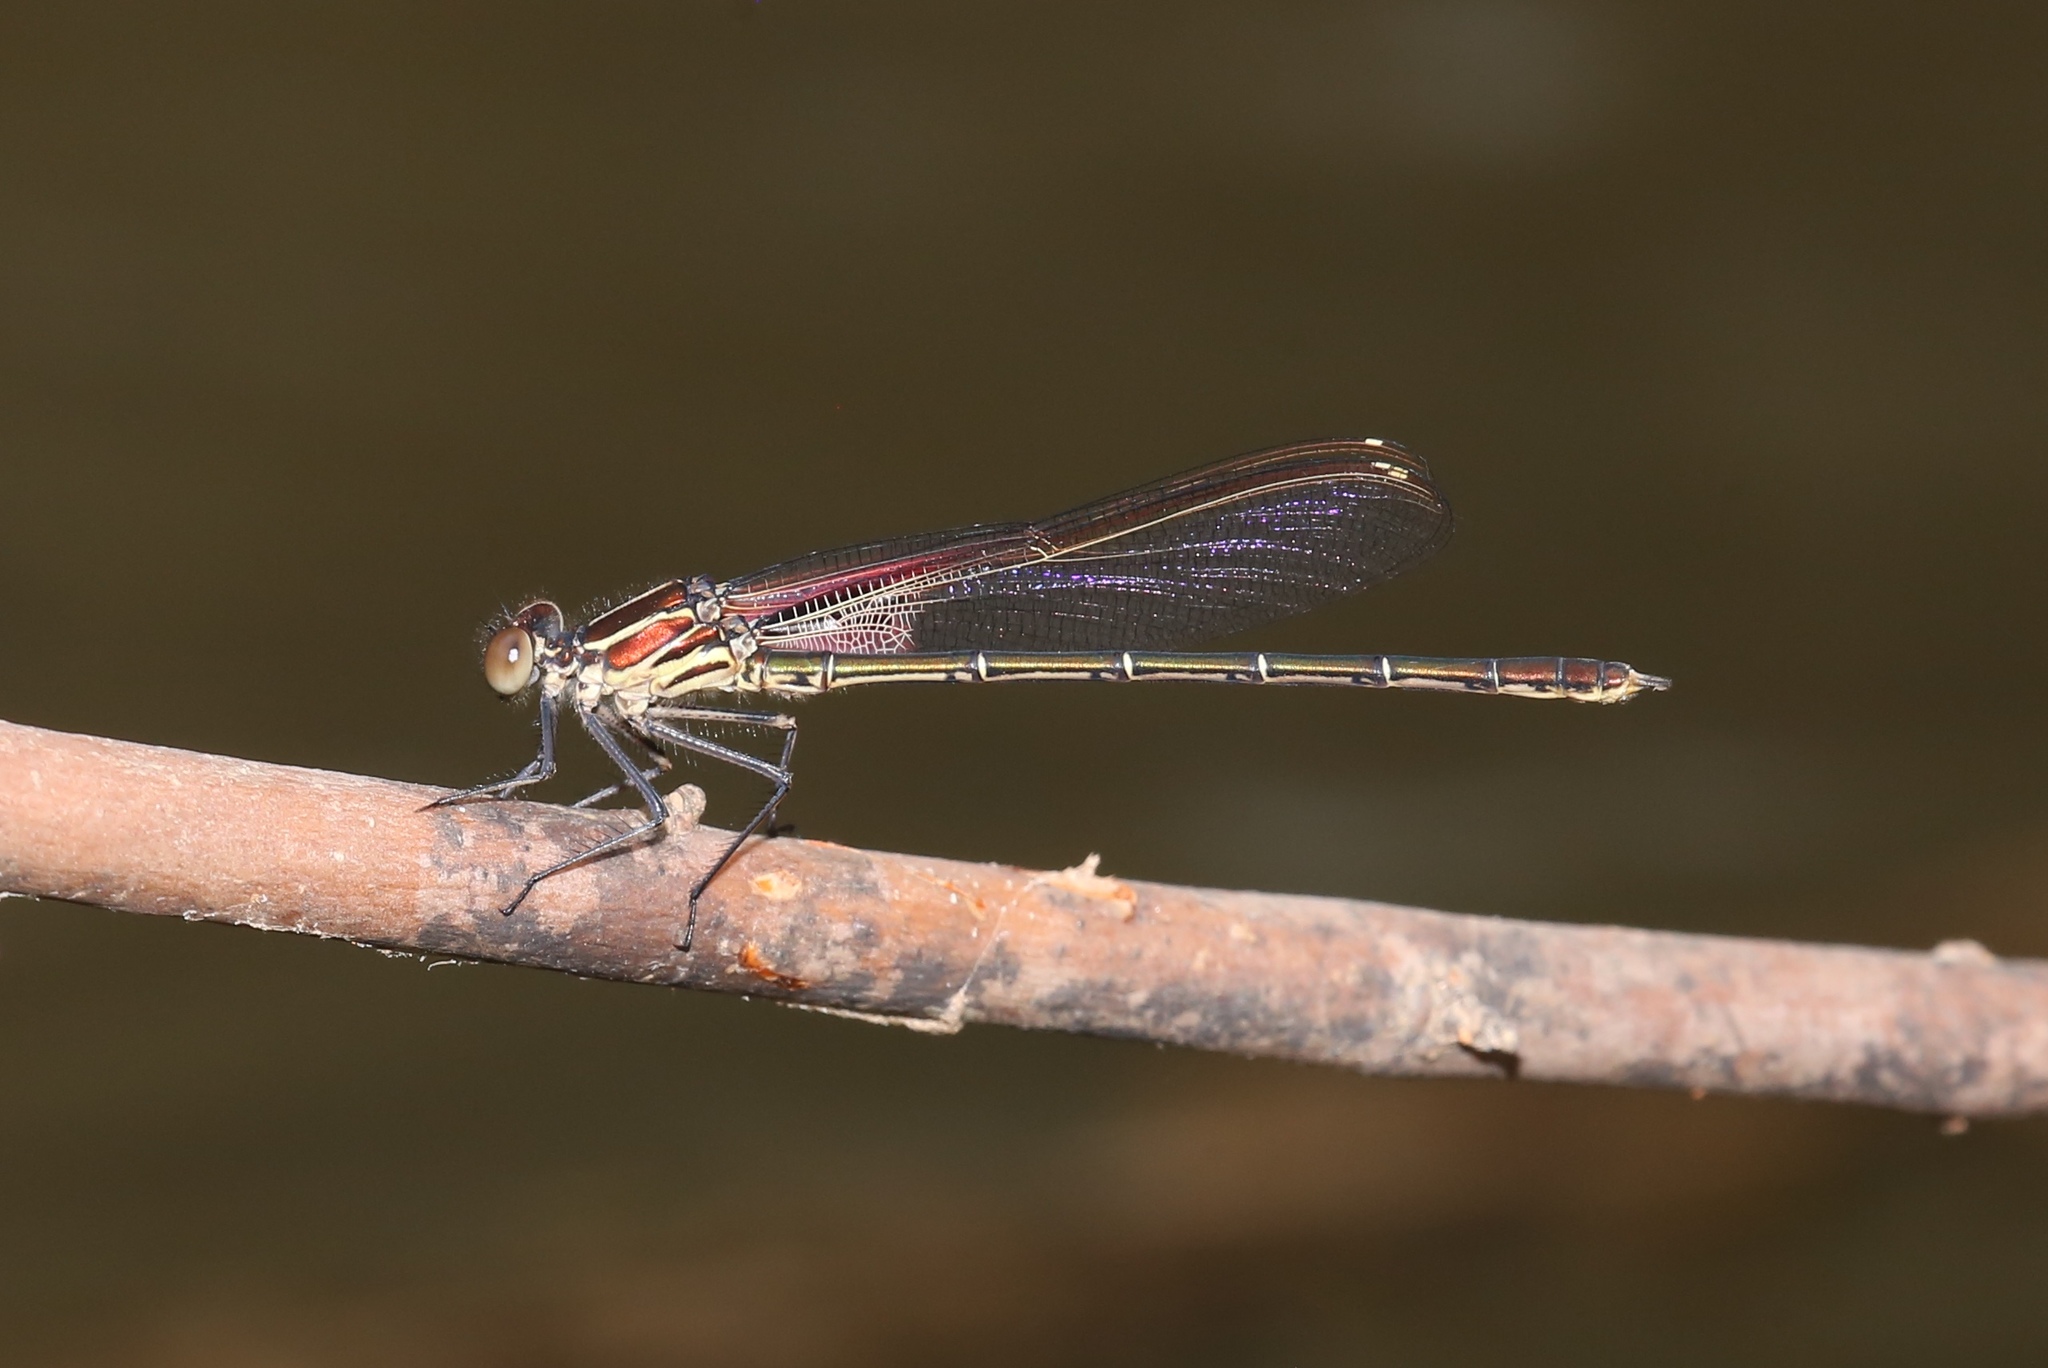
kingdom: Animalia
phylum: Arthropoda
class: Insecta
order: Odonata
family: Calopterygidae
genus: Hetaerina
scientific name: Hetaerina americana
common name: American rubyspot
